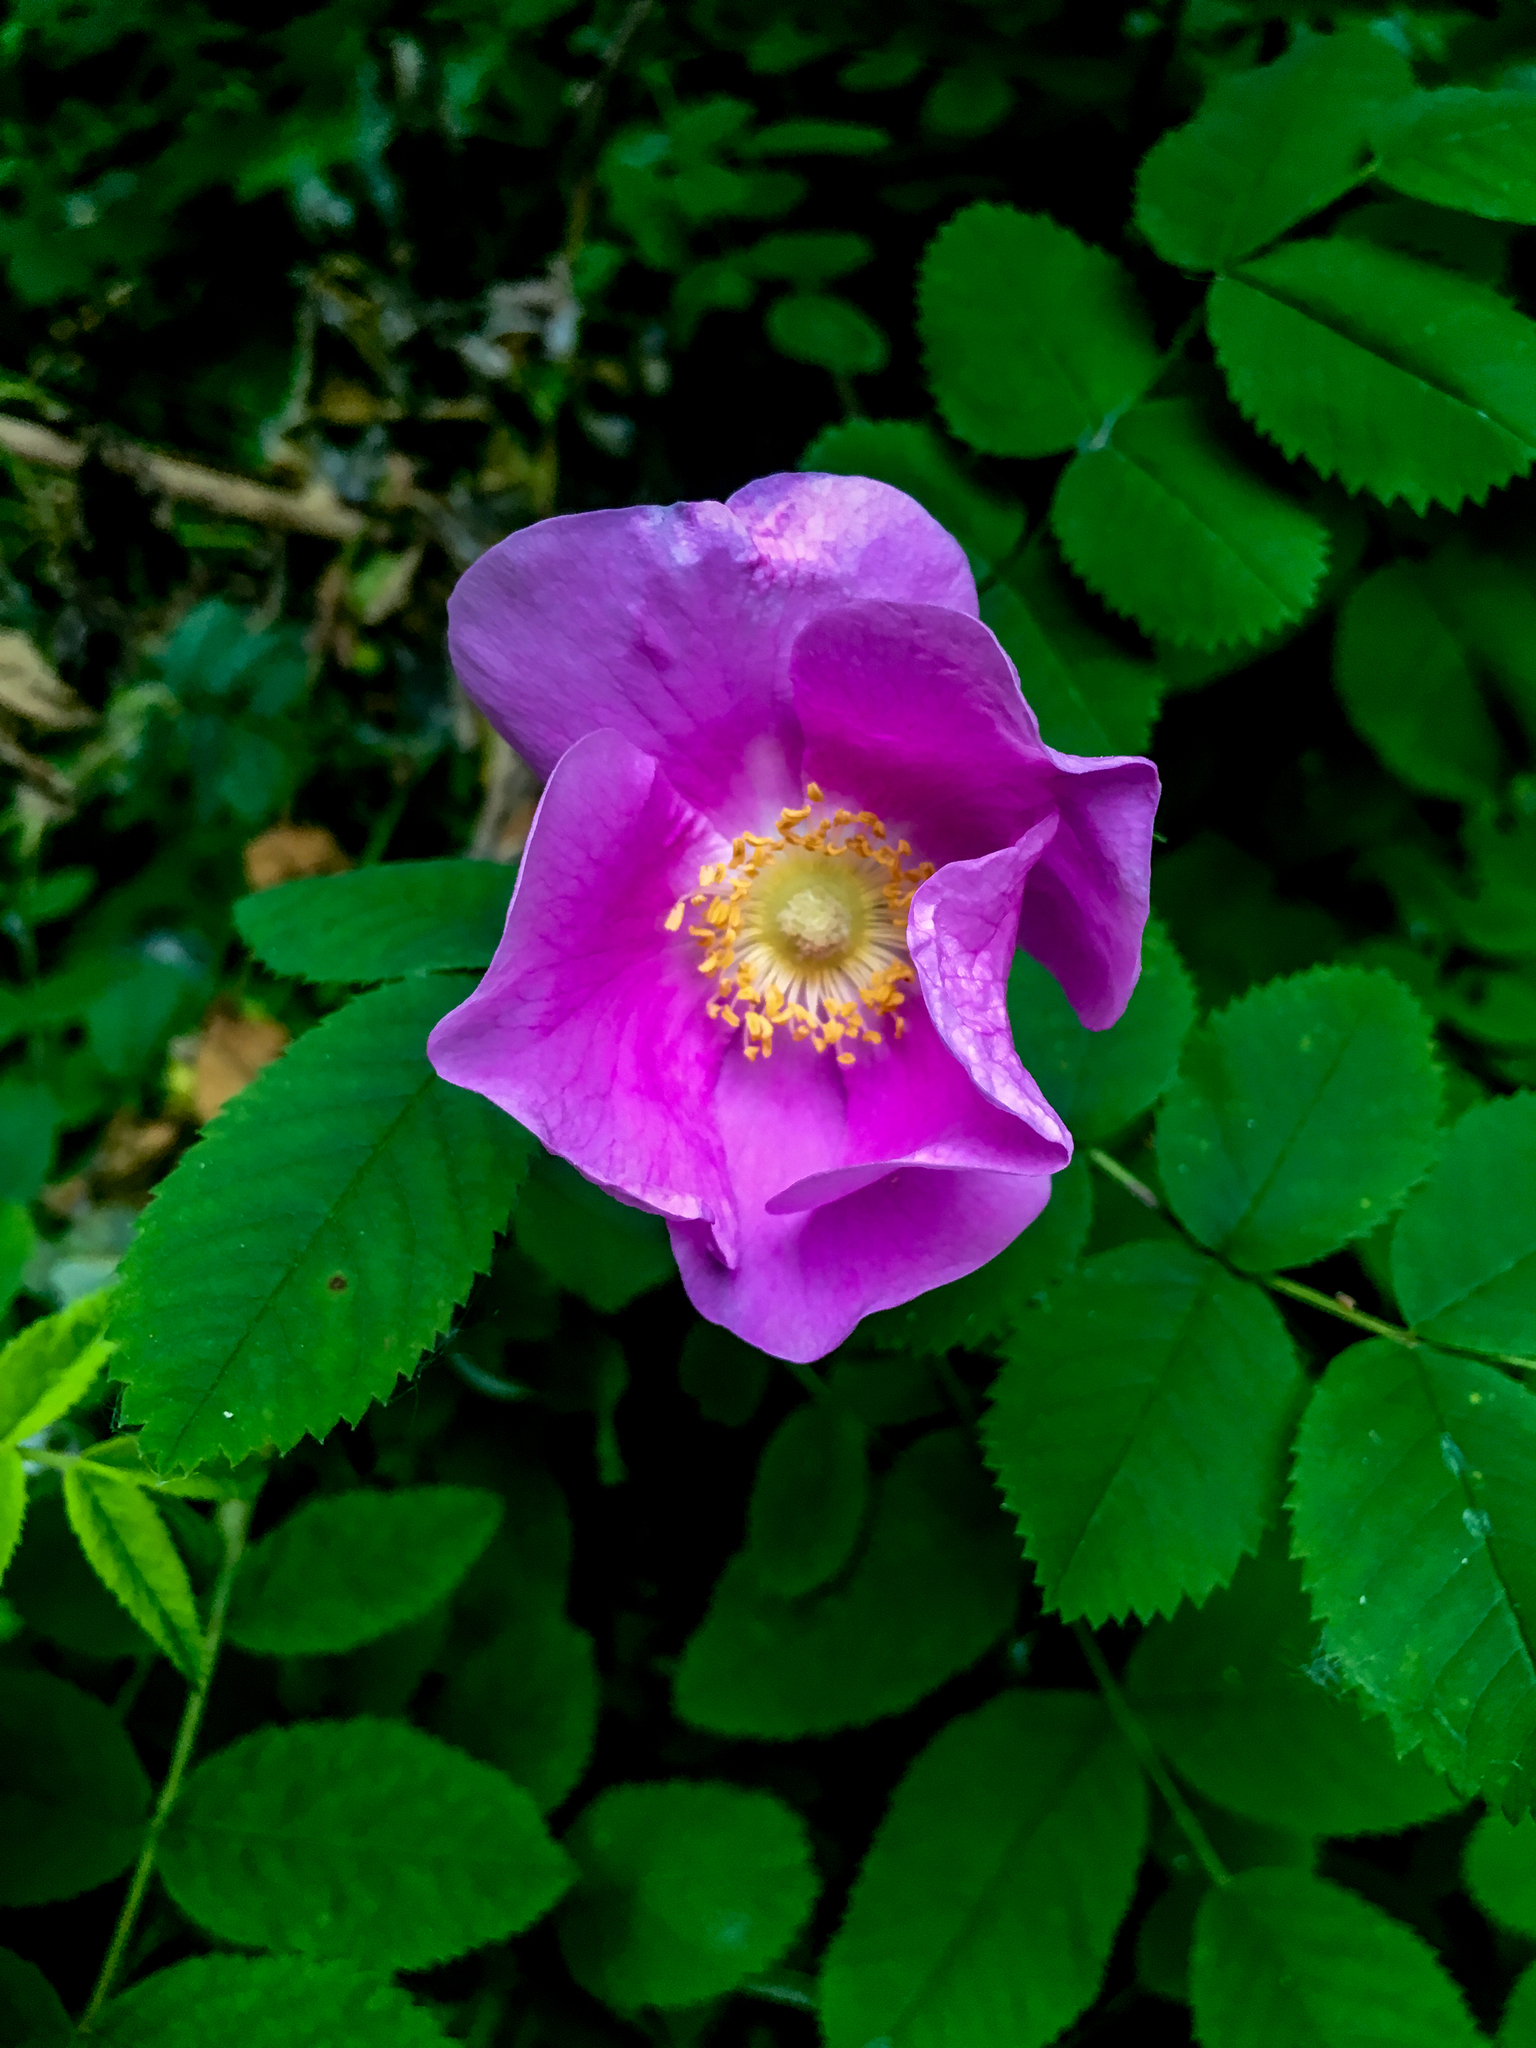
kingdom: Plantae
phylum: Tracheophyta
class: Magnoliopsida
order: Rosales
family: Rosaceae
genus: Rosa
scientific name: Rosa nutkana
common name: Nootka rose
